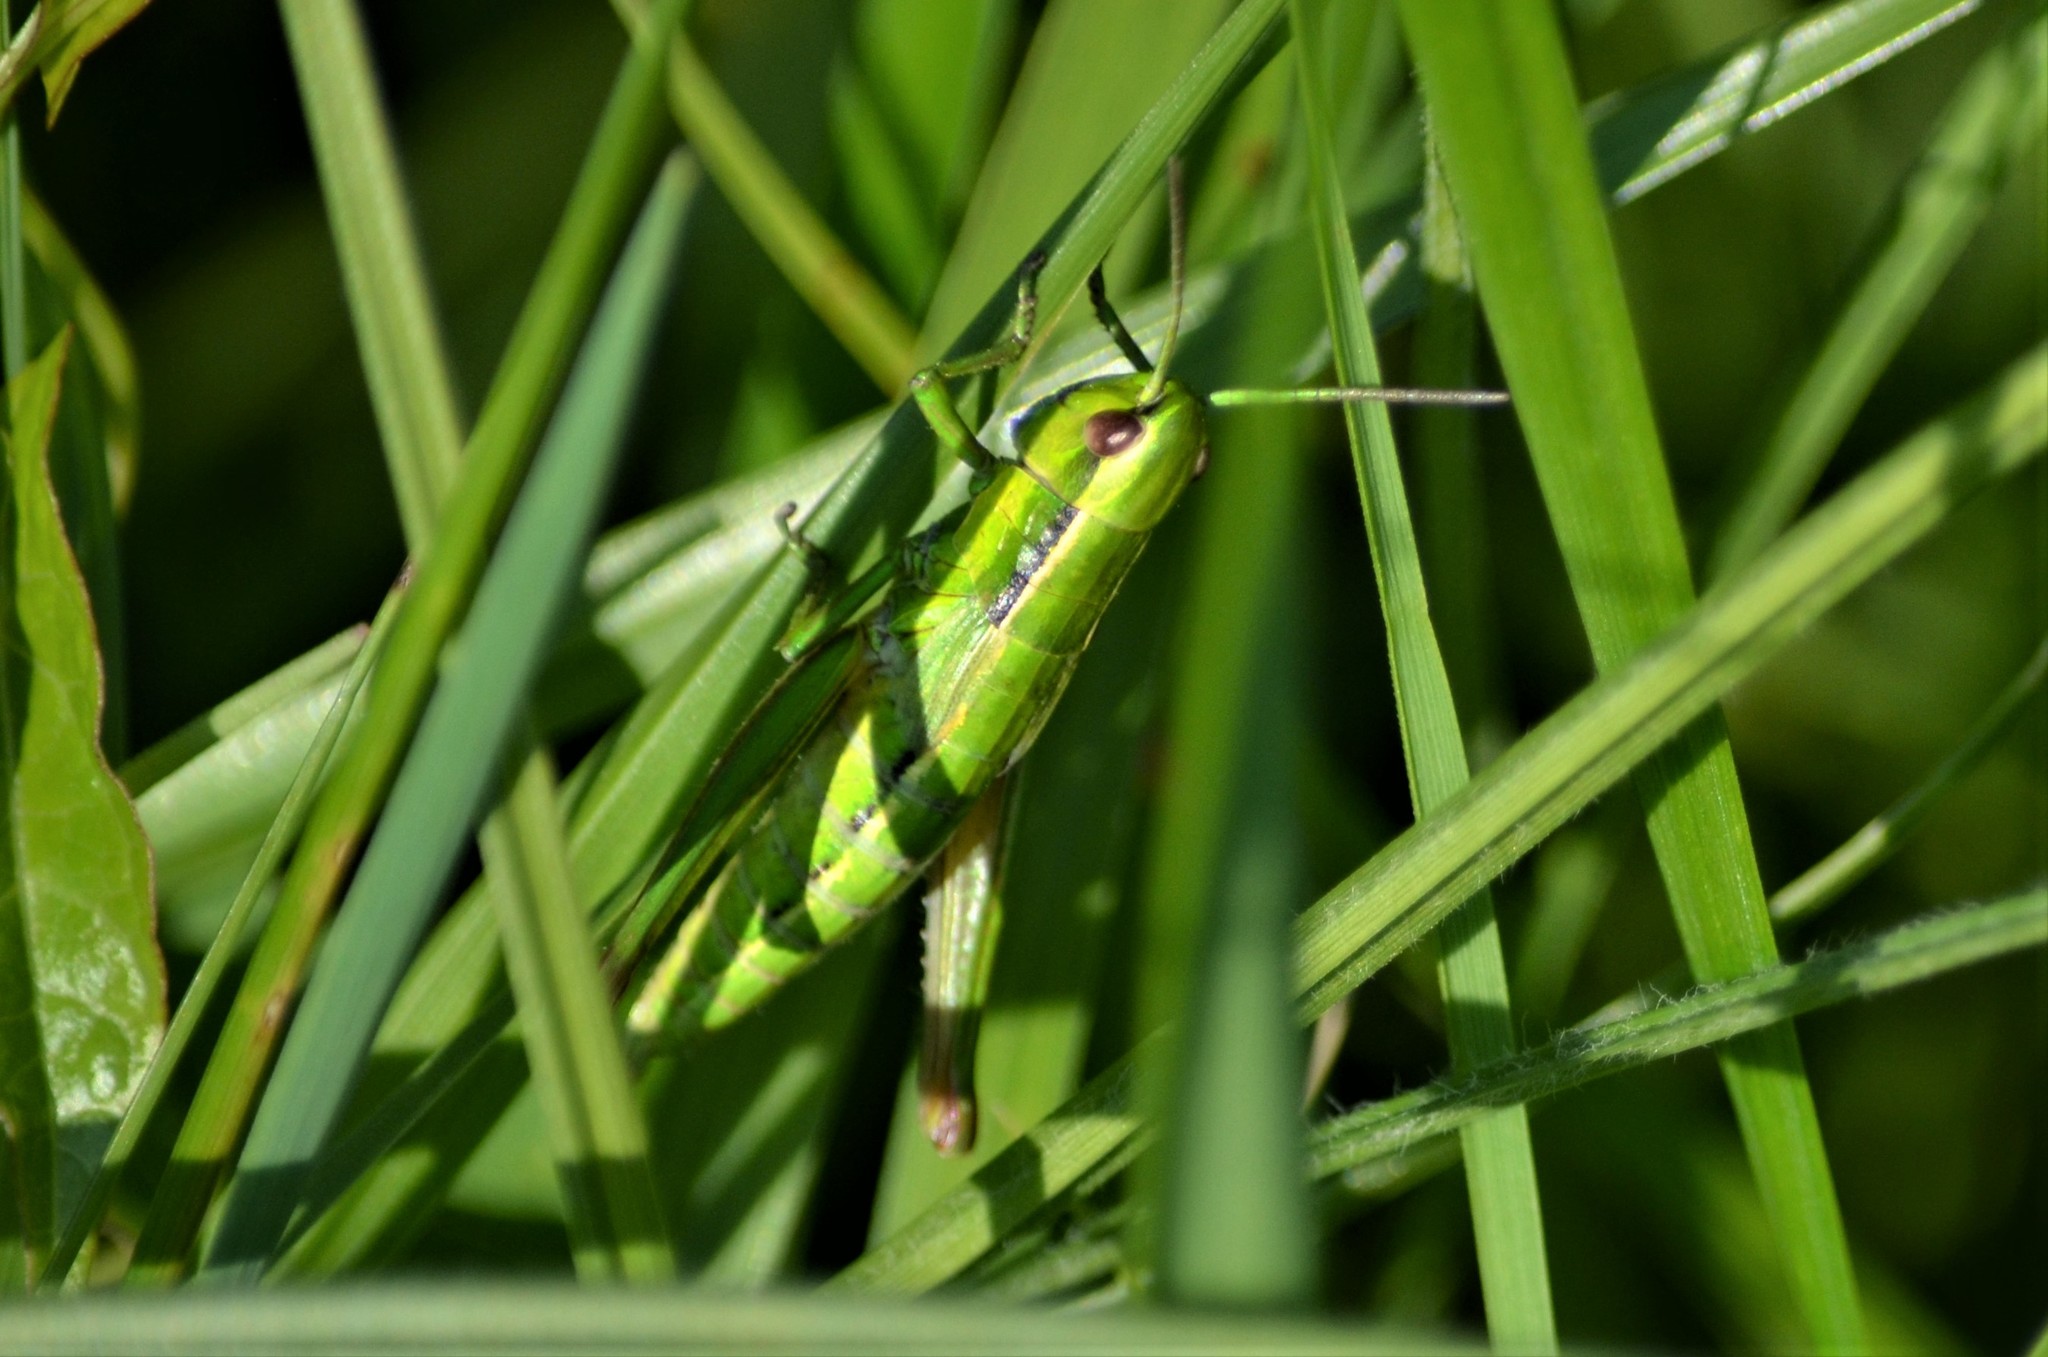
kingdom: Animalia
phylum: Arthropoda
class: Insecta
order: Orthoptera
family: Acrididae
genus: Euthystira
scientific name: Euthystira brachyptera
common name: Small gold grasshopper
